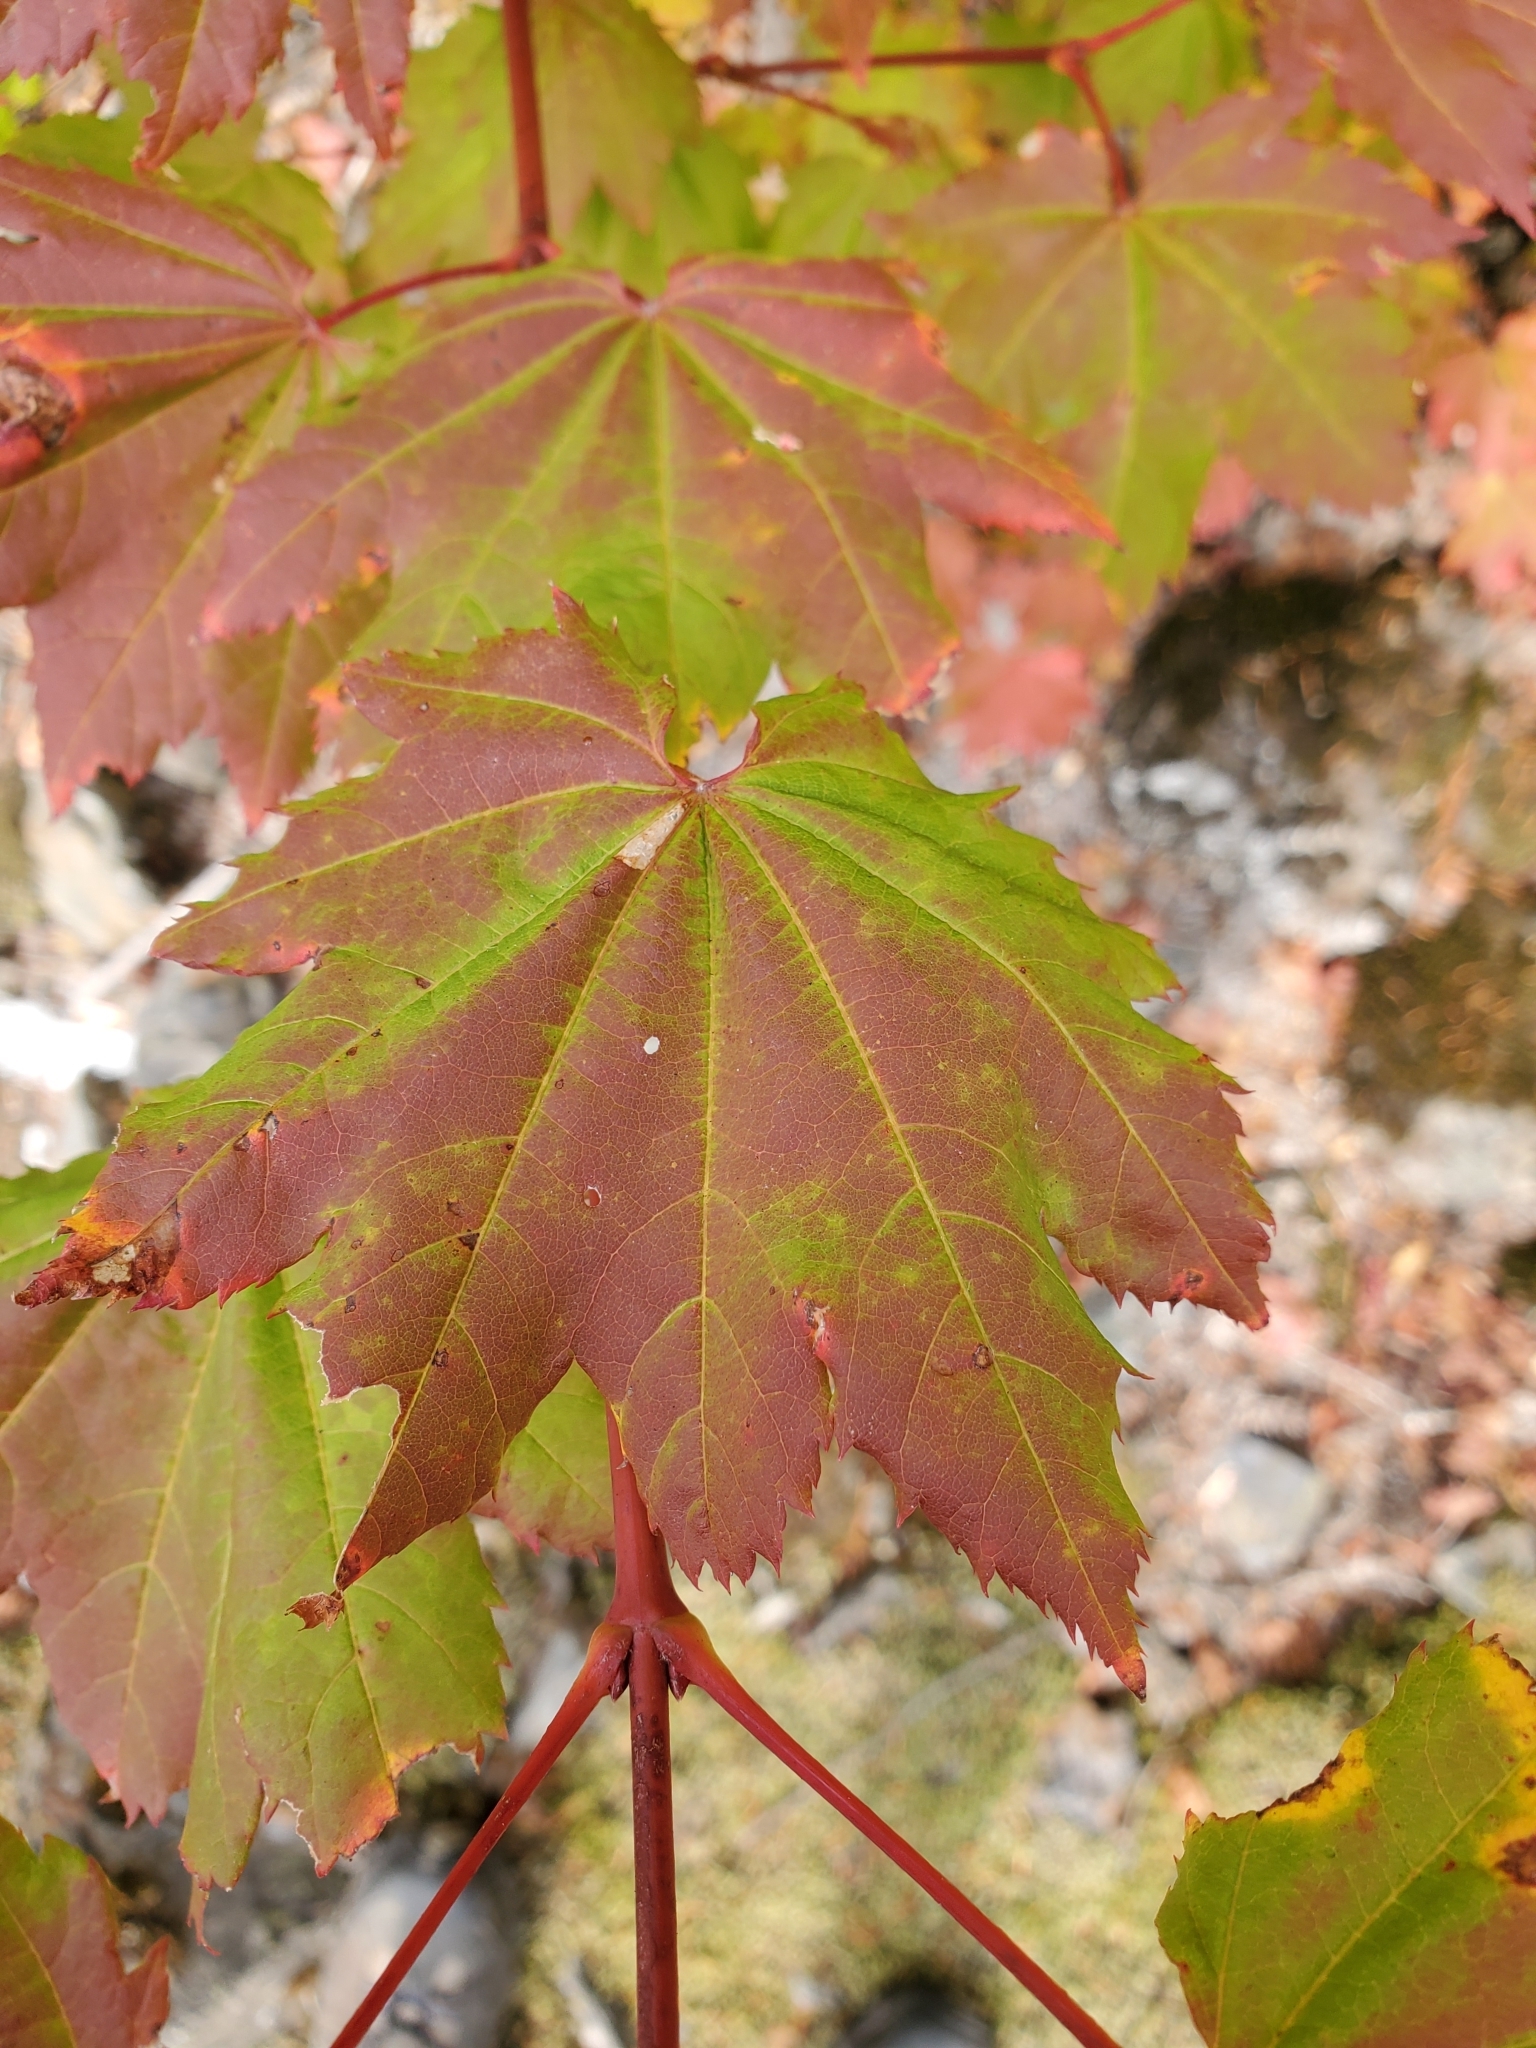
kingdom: Plantae
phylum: Tracheophyta
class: Magnoliopsida
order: Sapindales
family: Sapindaceae
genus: Acer
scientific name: Acer circinatum
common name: Vine maple
